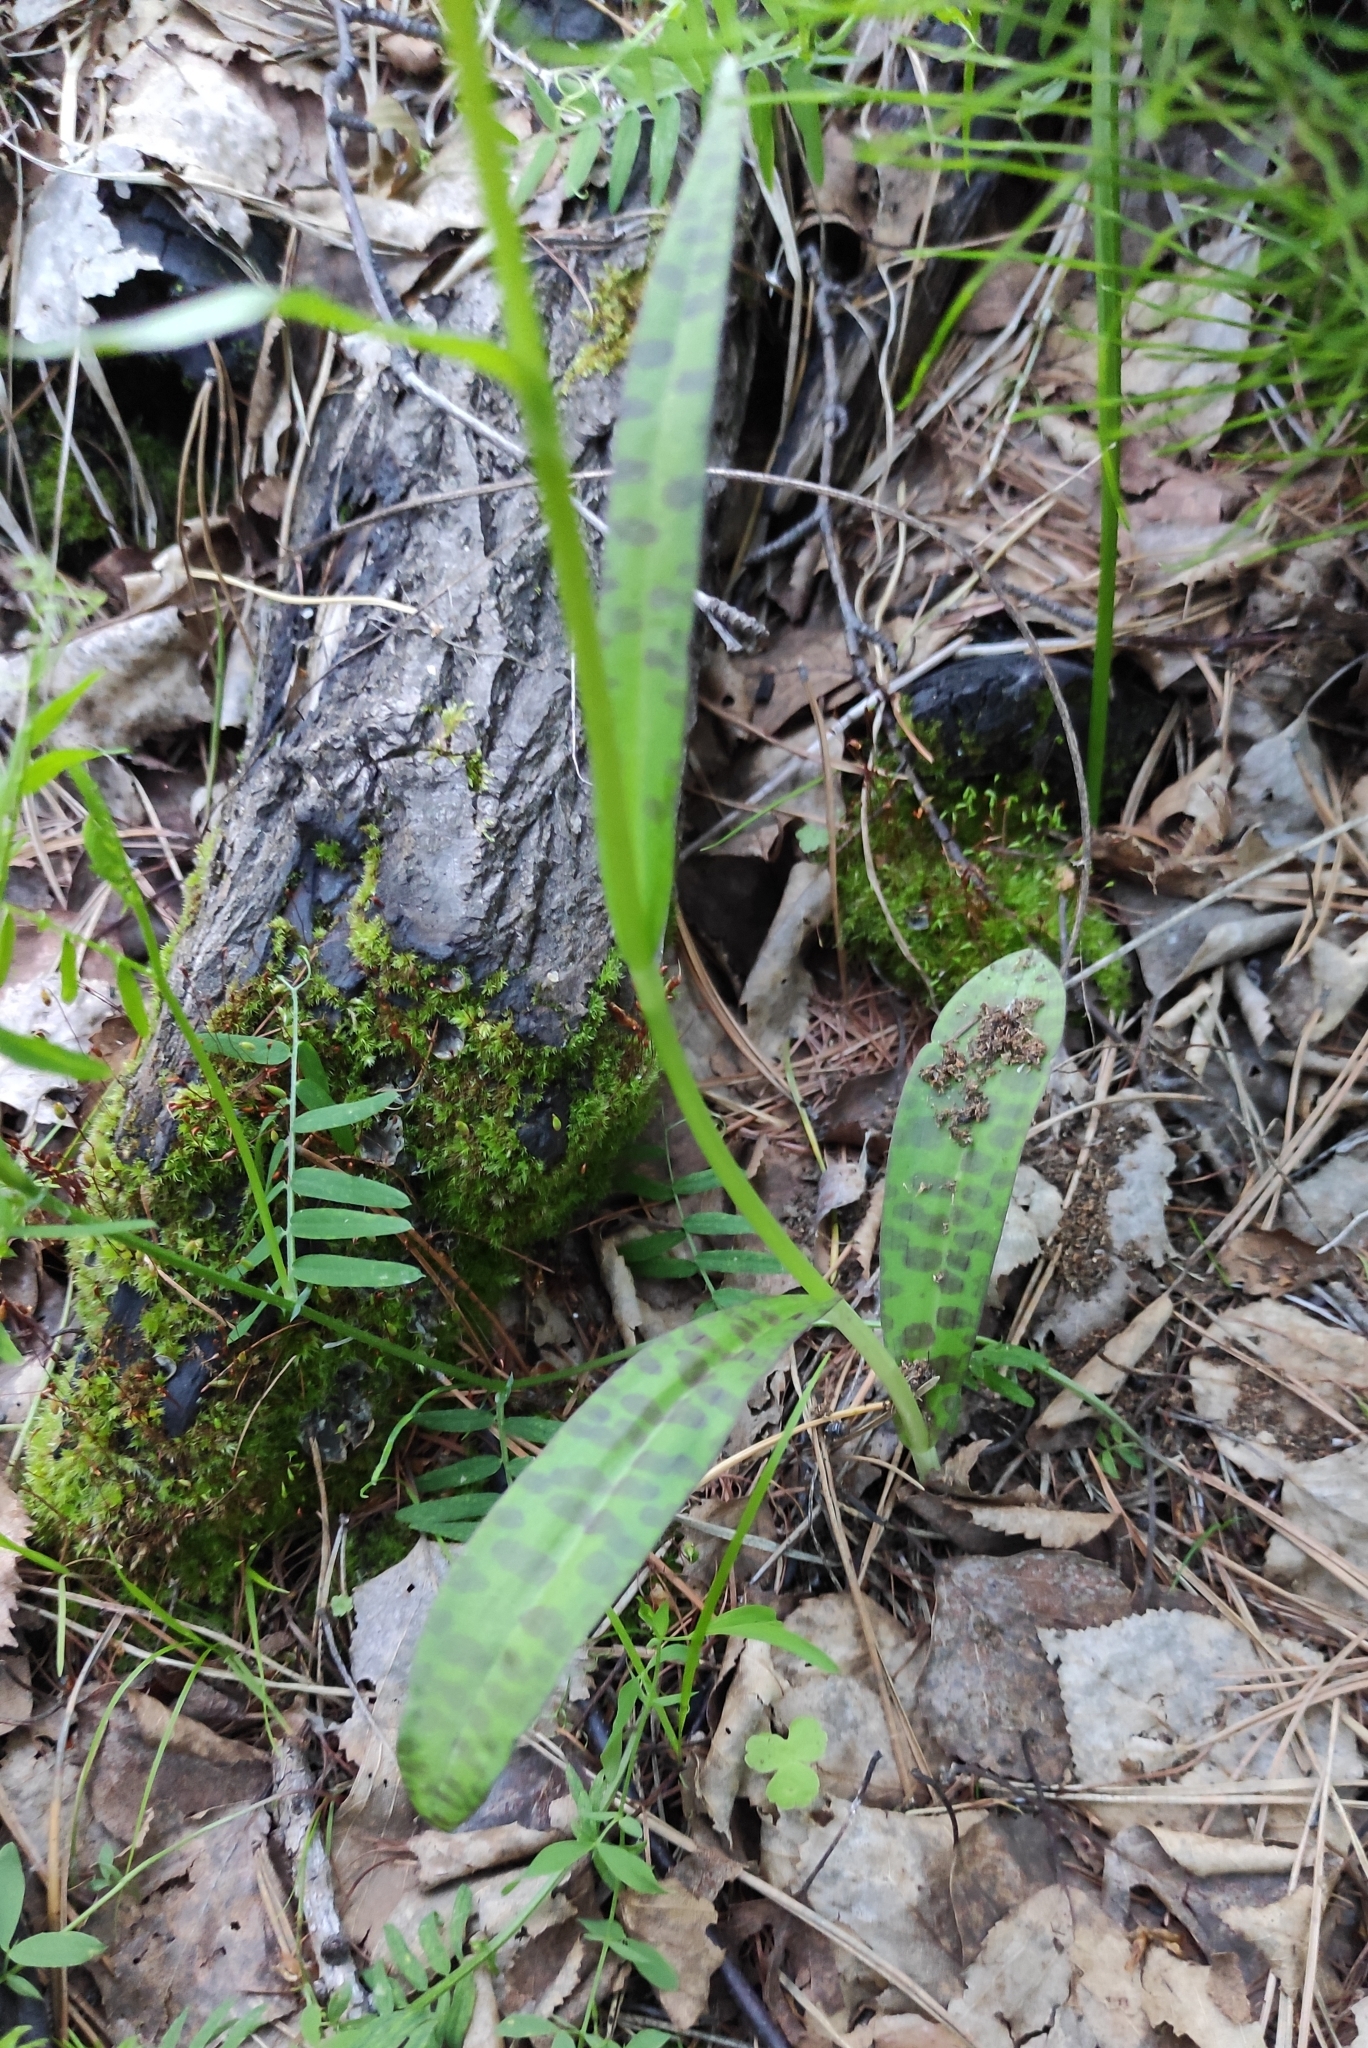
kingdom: Plantae
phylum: Tracheophyta
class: Liliopsida
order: Asparagales
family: Orchidaceae
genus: Dactylorhiza
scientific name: Dactylorhiza maculata
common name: Heath spotted-orchid
